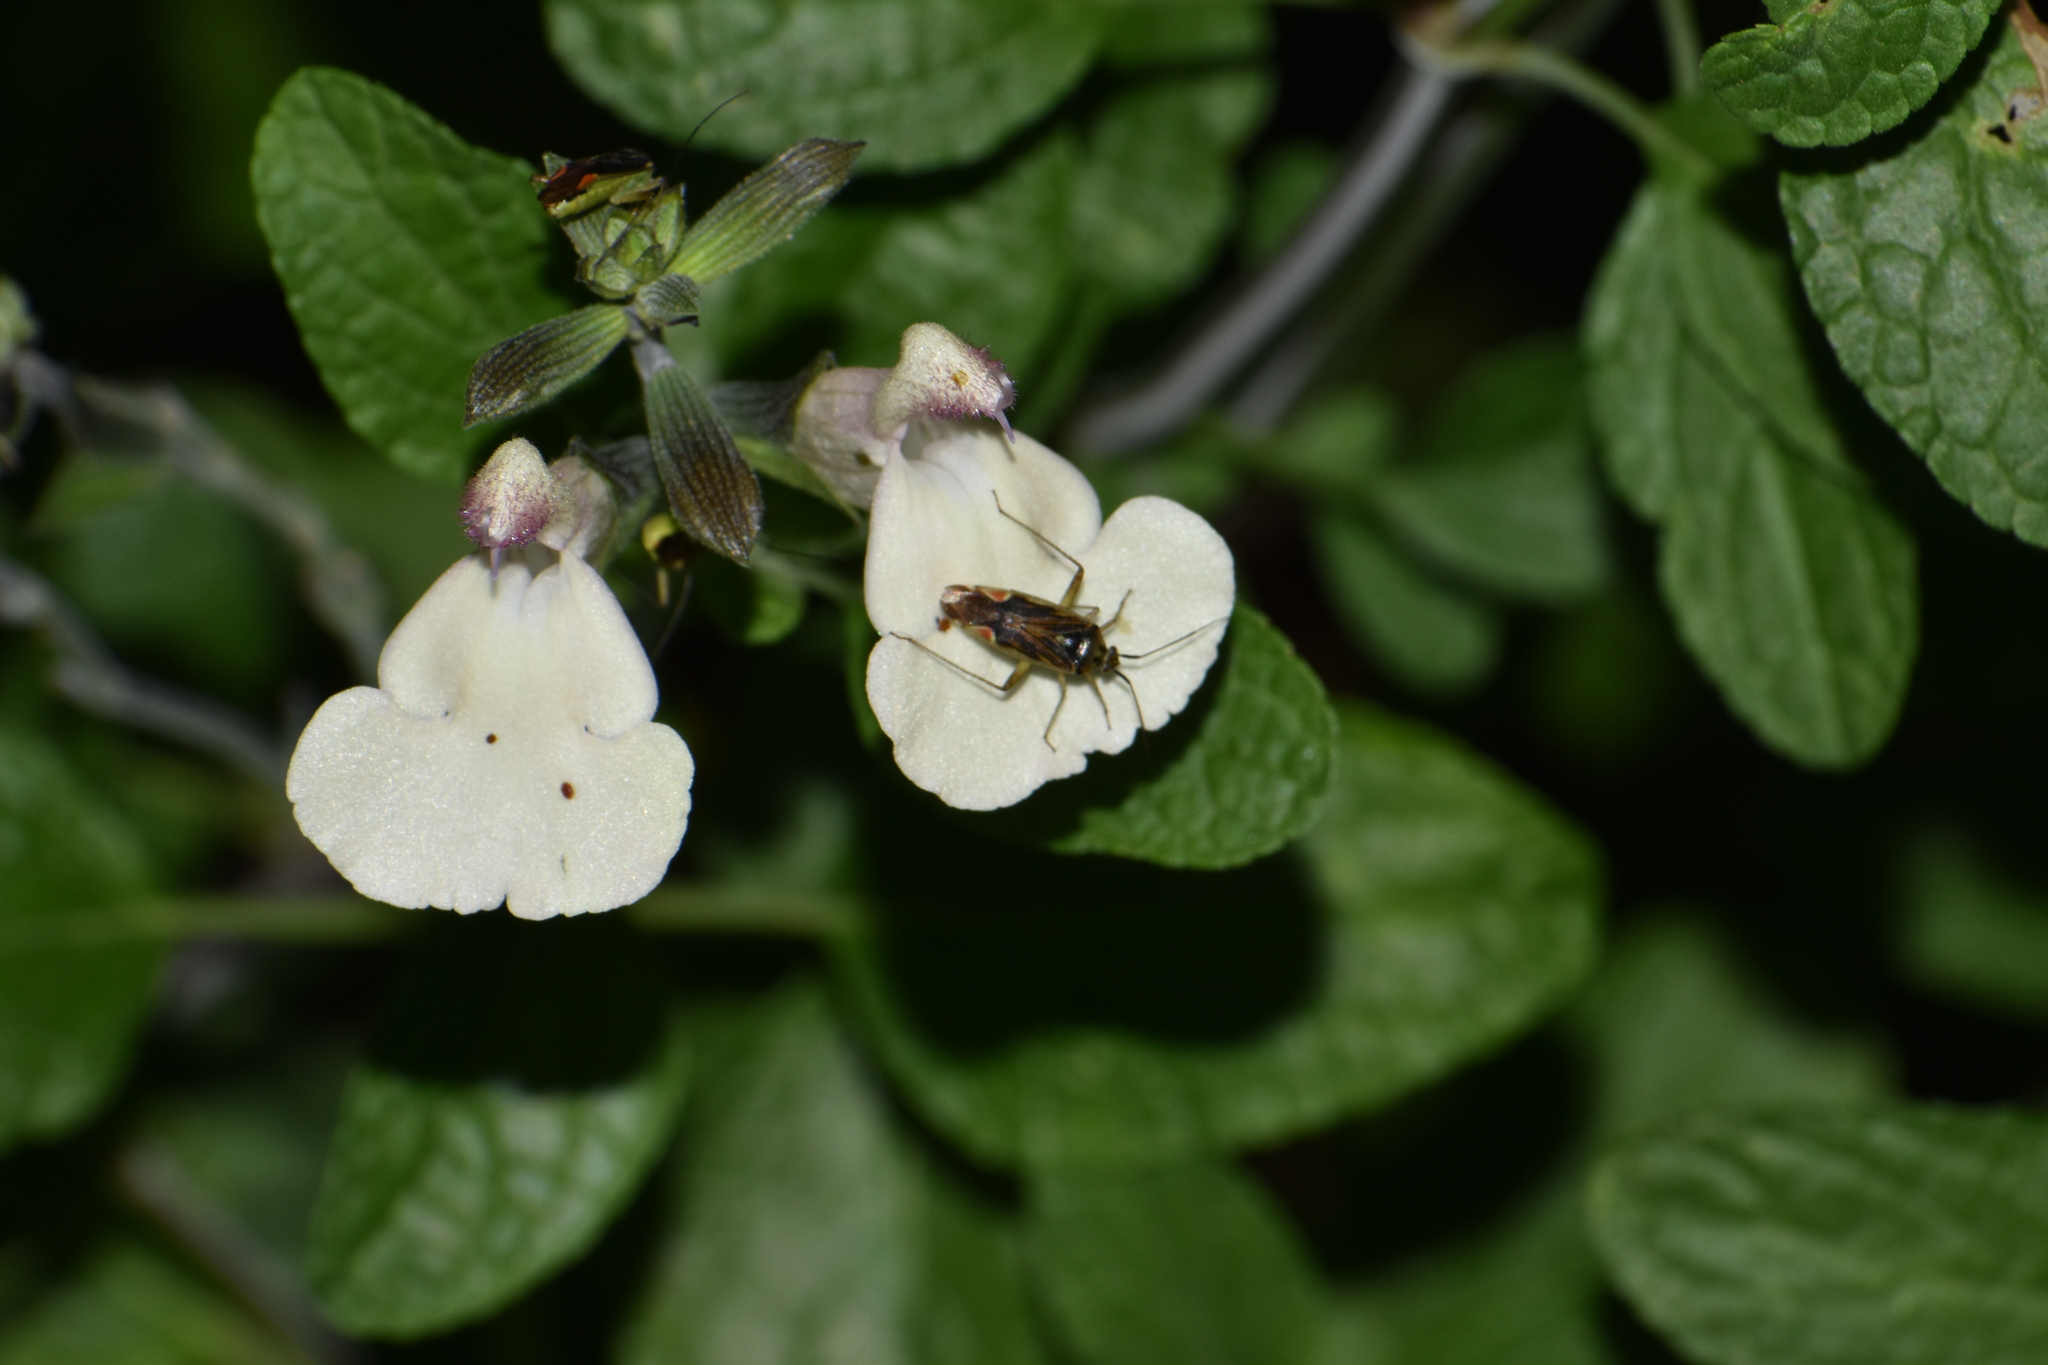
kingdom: Animalia
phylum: Arthropoda
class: Insecta
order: Hemiptera
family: Miridae
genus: Closterotomus
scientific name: Closterotomus trivialis
